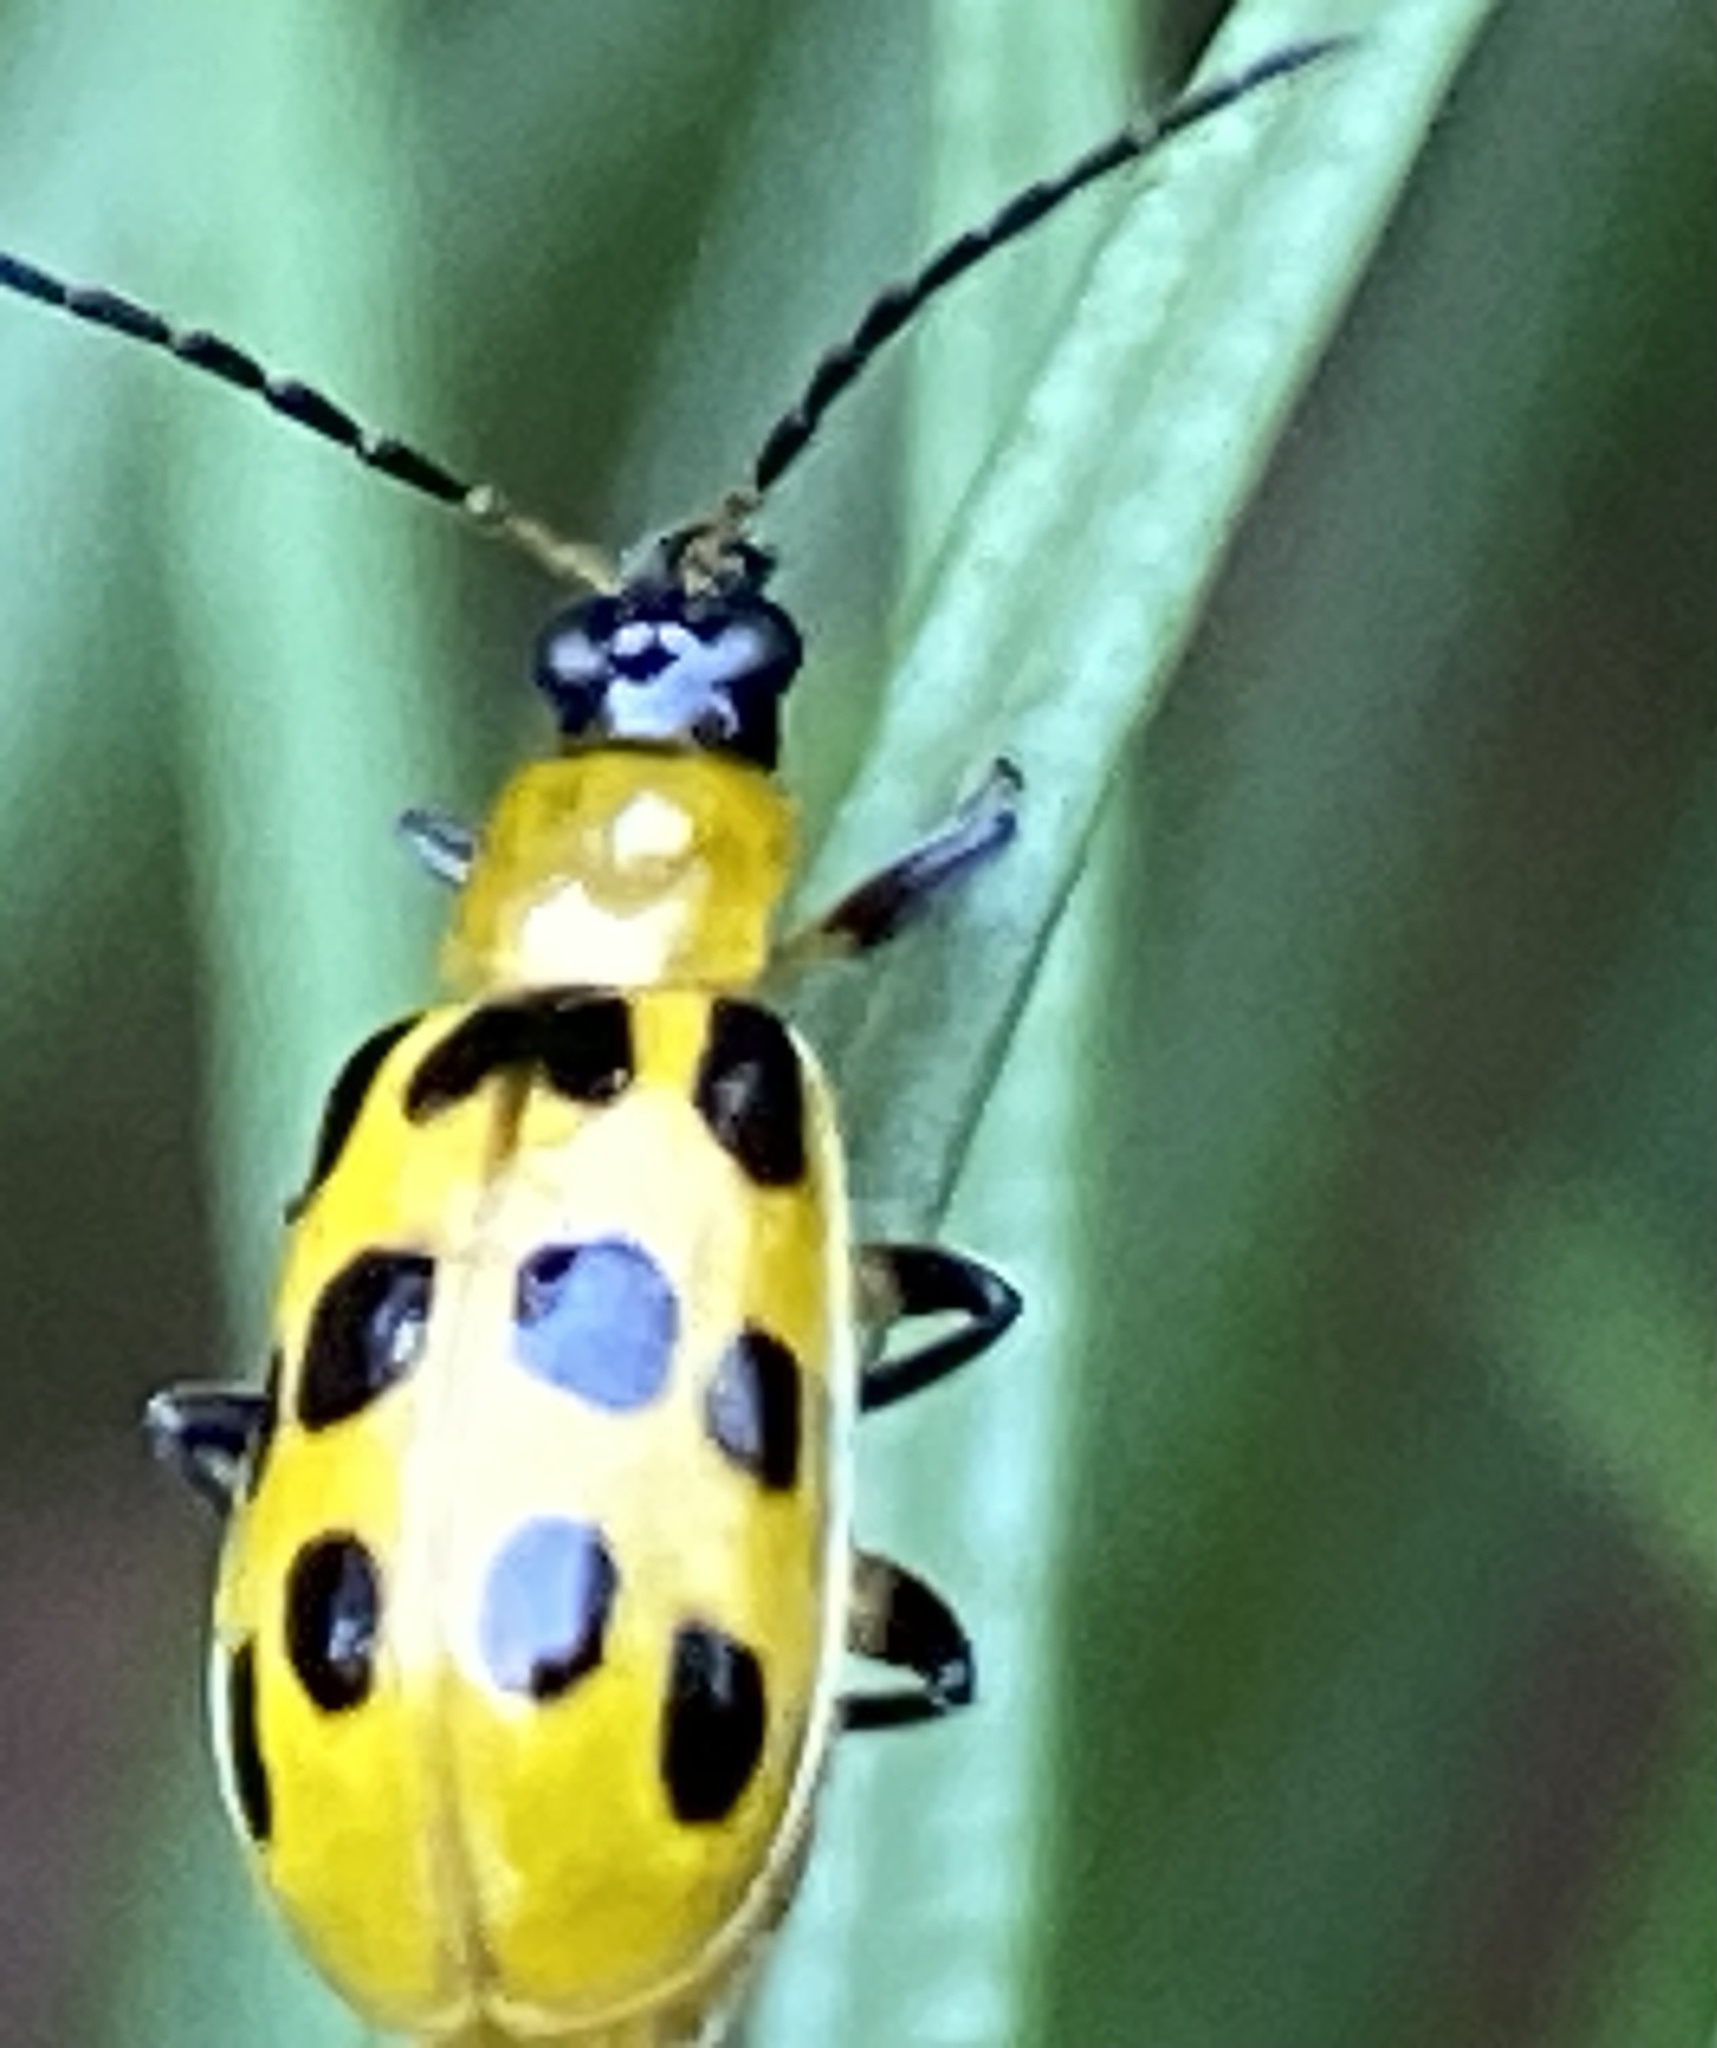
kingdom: Animalia
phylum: Arthropoda
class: Insecta
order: Coleoptera
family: Chrysomelidae
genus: Diabrotica
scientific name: Diabrotica undecimpunctata
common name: Spotted cucumber beetle
